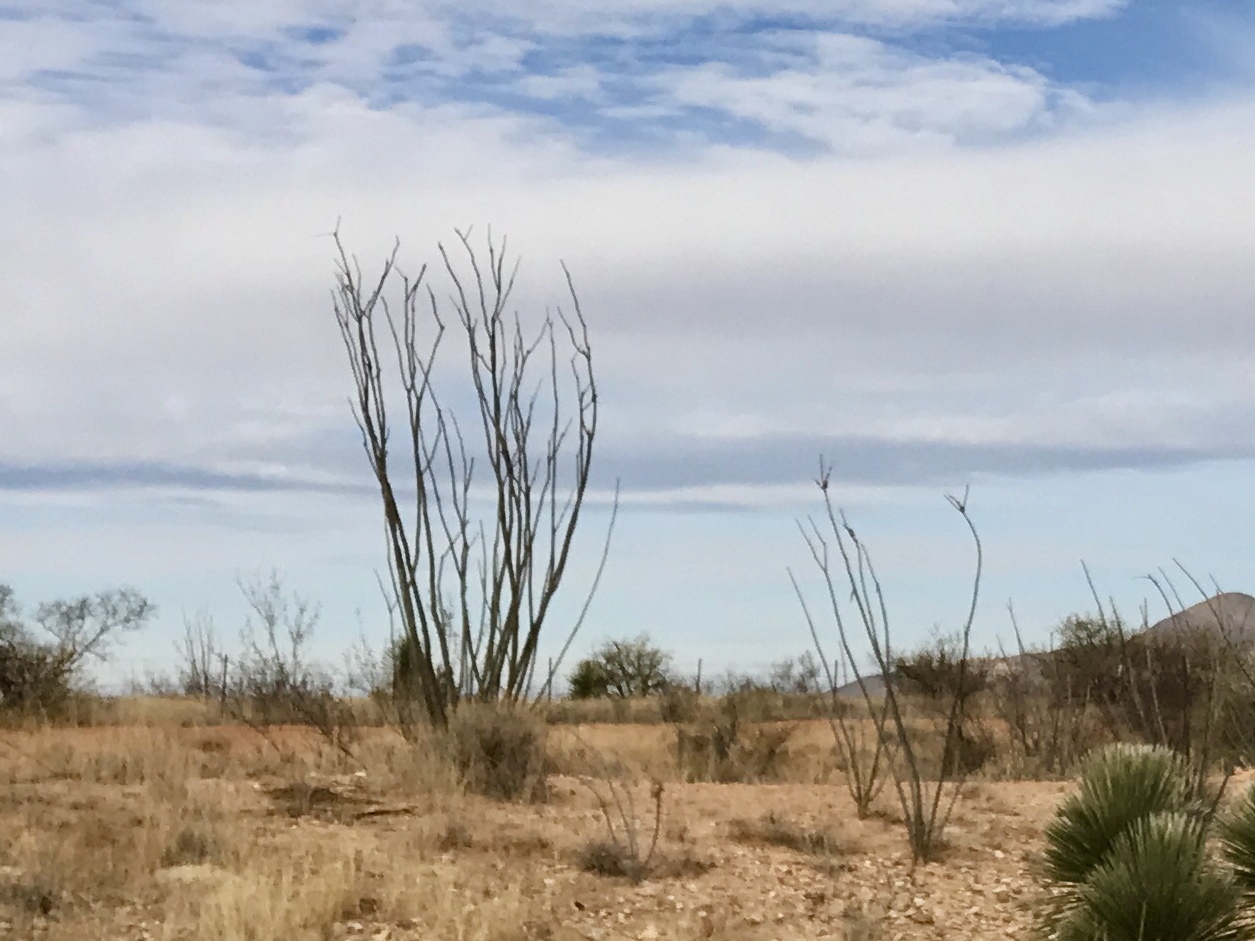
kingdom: Plantae
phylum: Tracheophyta
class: Magnoliopsida
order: Ericales
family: Fouquieriaceae
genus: Fouquieria
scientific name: Fouquieria splendens
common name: Vine-cactus
